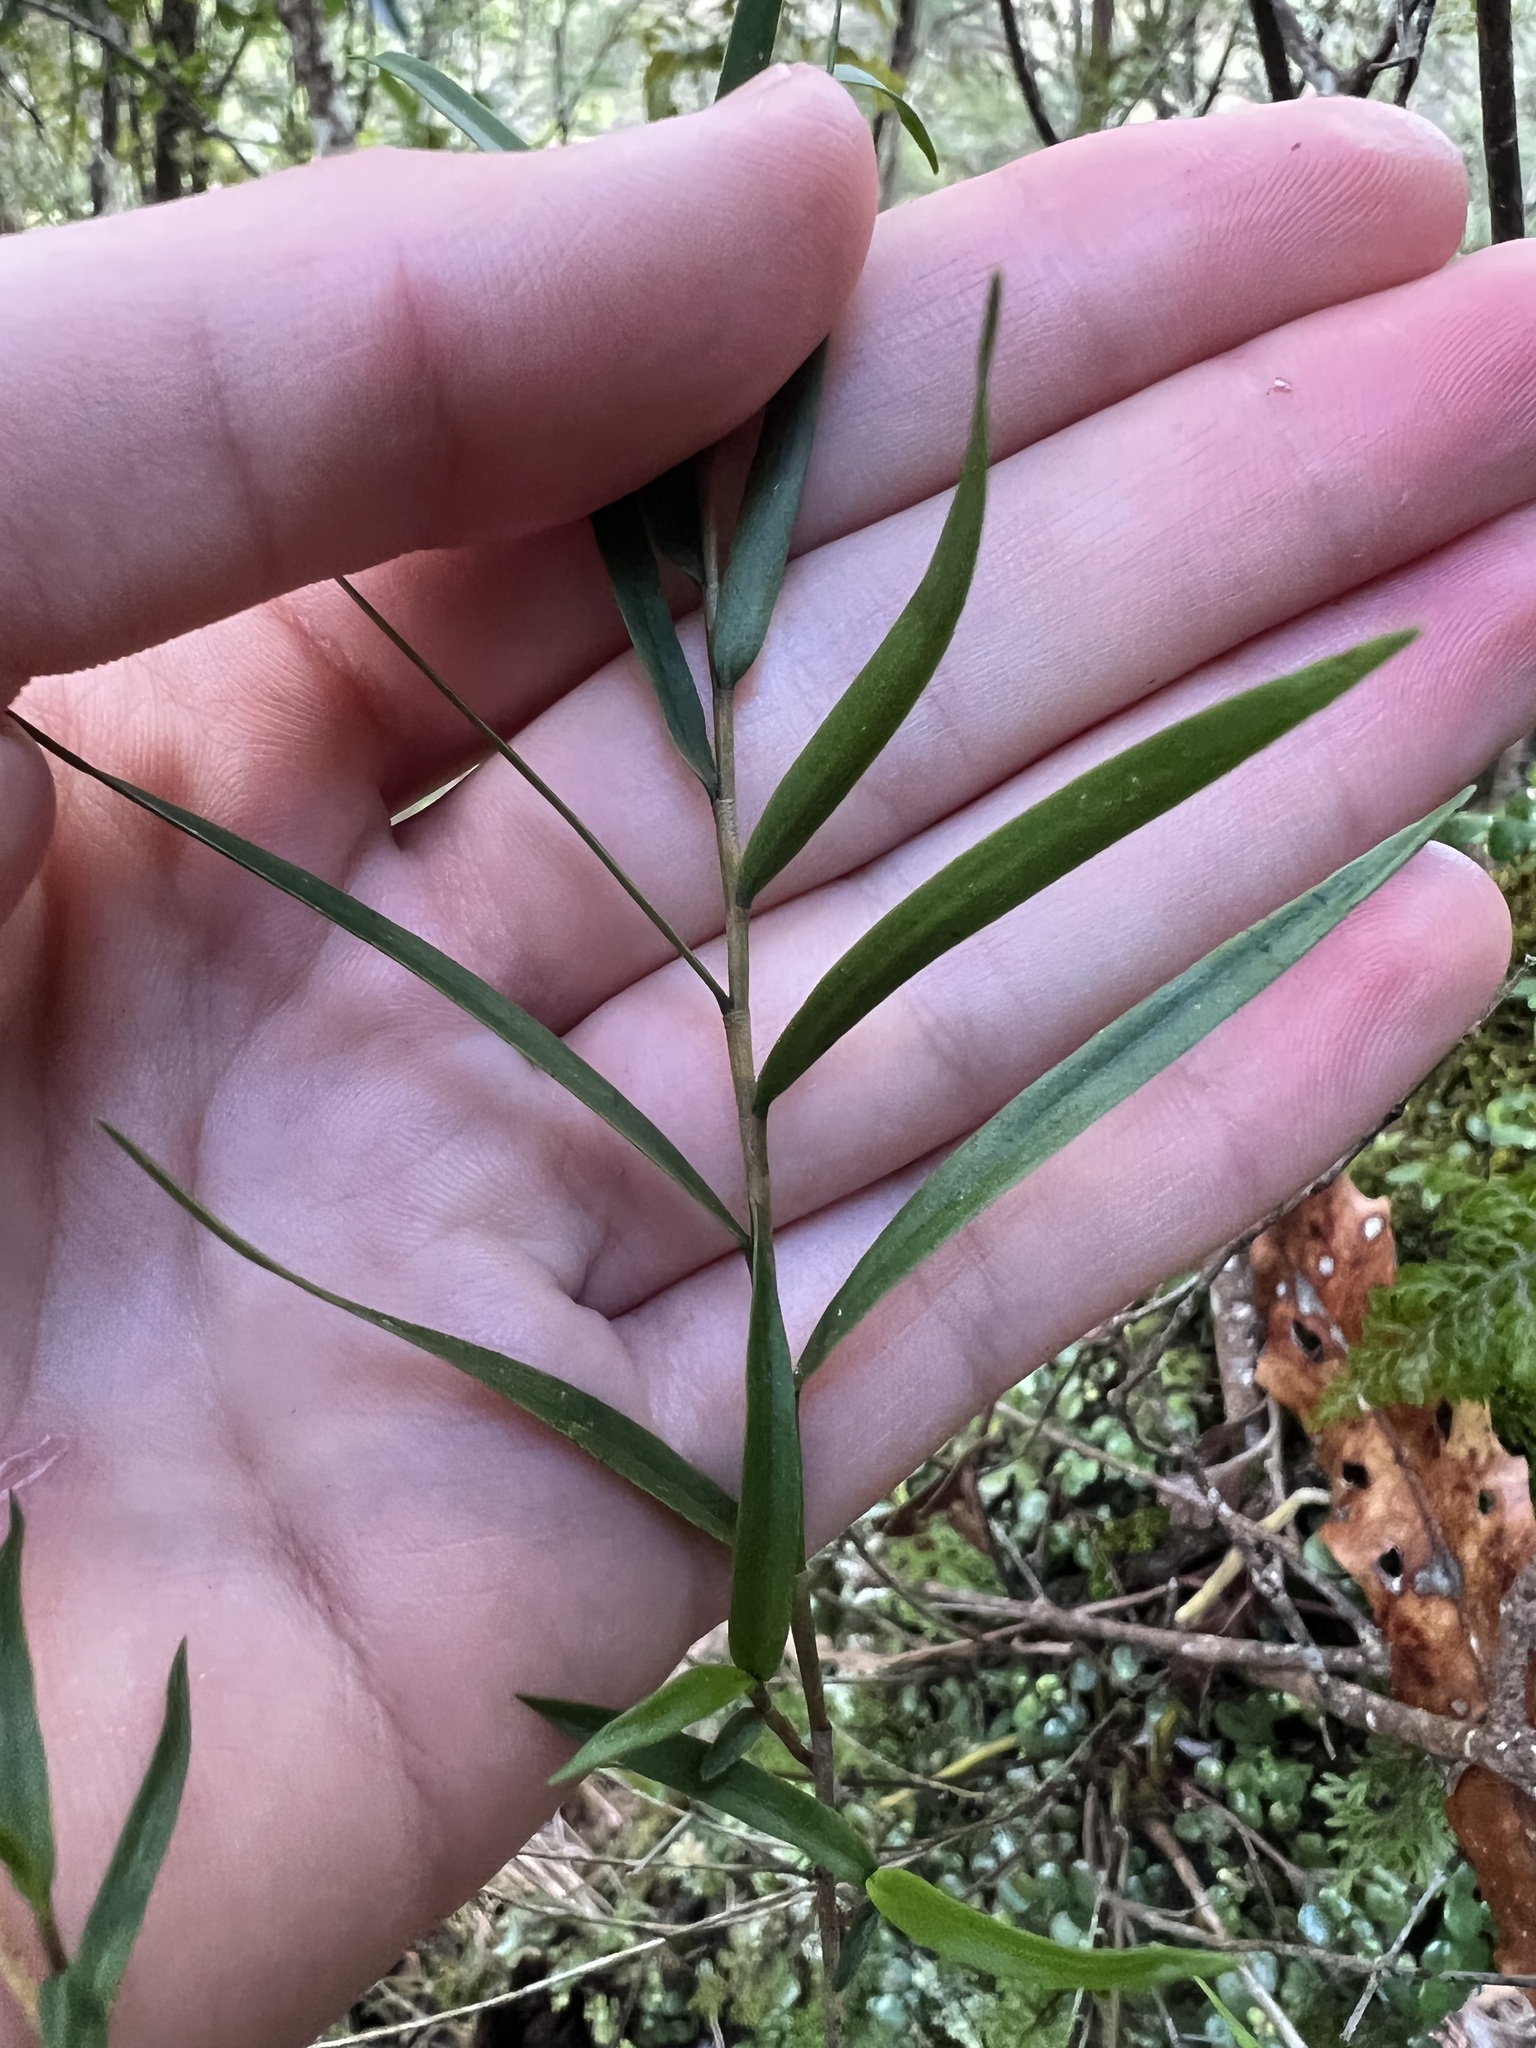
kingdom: Plantae
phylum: Tracheophyta
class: Liliopsida
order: Asparagales
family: Orchidaceae
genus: Dendrobium
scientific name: Dendrobium cunninghamii
